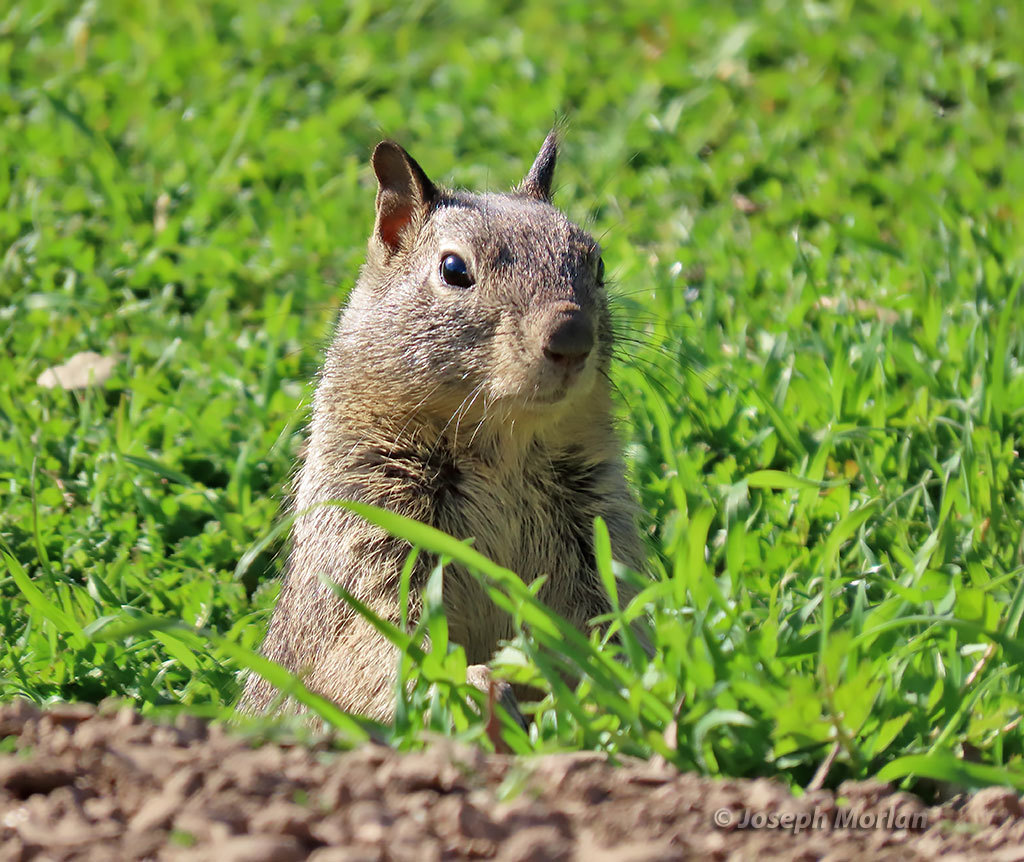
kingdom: Animalia
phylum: Chordata
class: Mammalia
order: Rodentia
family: Sciuridae
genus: Otospermophilus
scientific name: Otospermophilus beecheyi
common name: California ground squirrel
